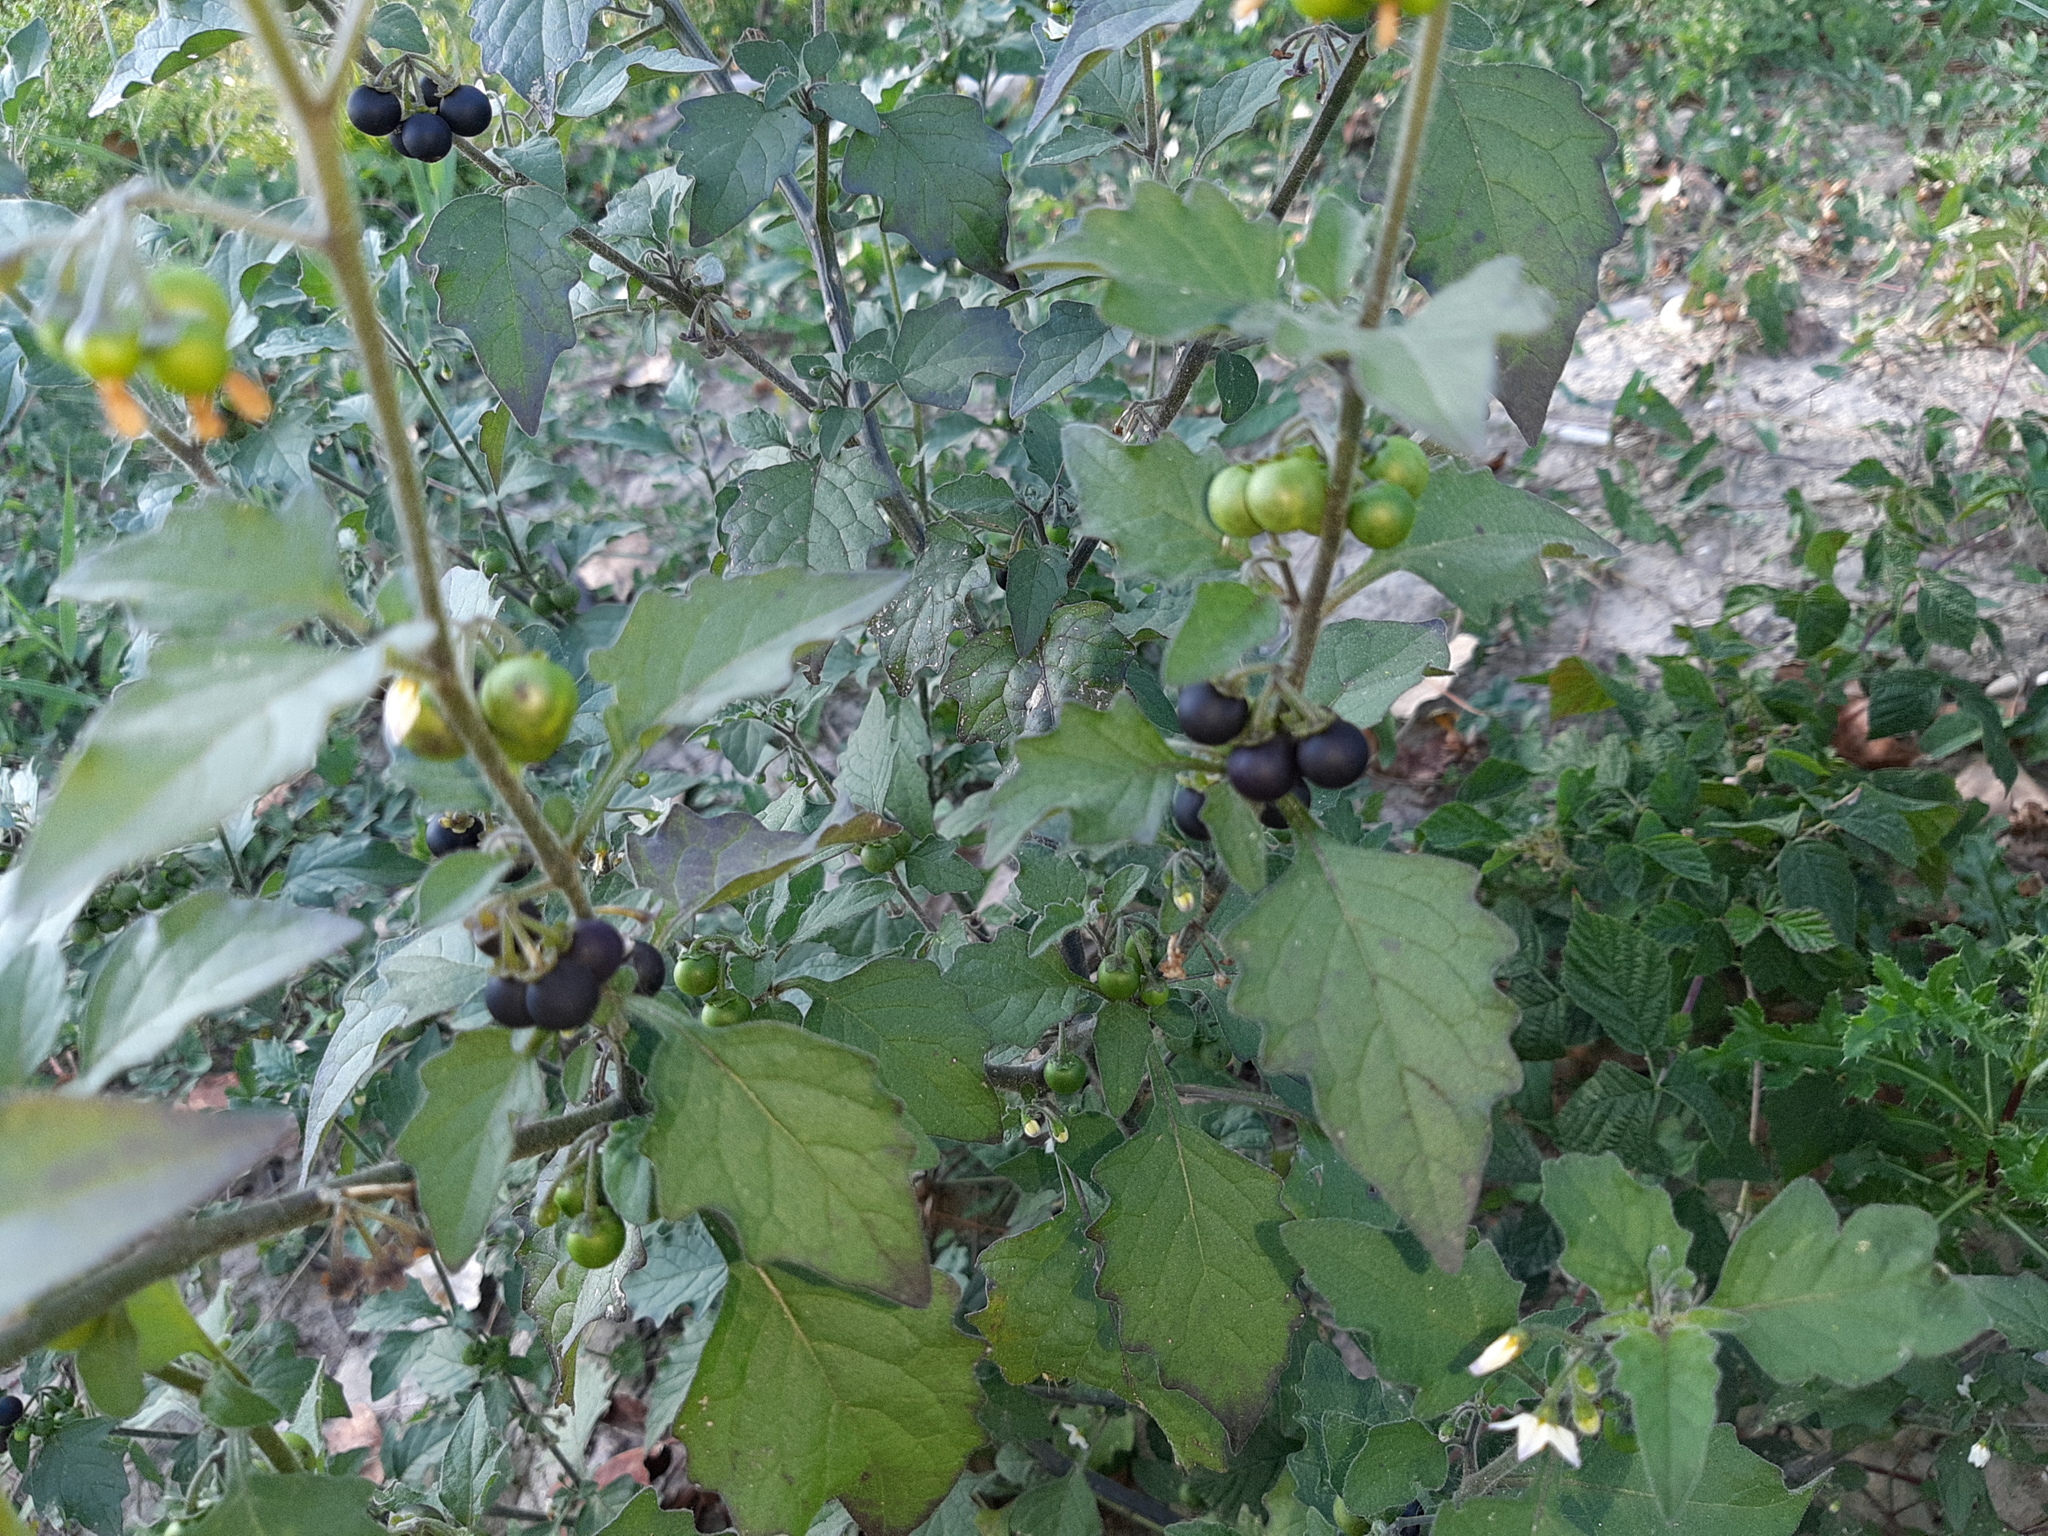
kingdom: Plantae
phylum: Tracheophyta
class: Magnoliopsida
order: Solanales
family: Solanaceae
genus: Solanum
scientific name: Solanum nigrum
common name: Black nightshade
